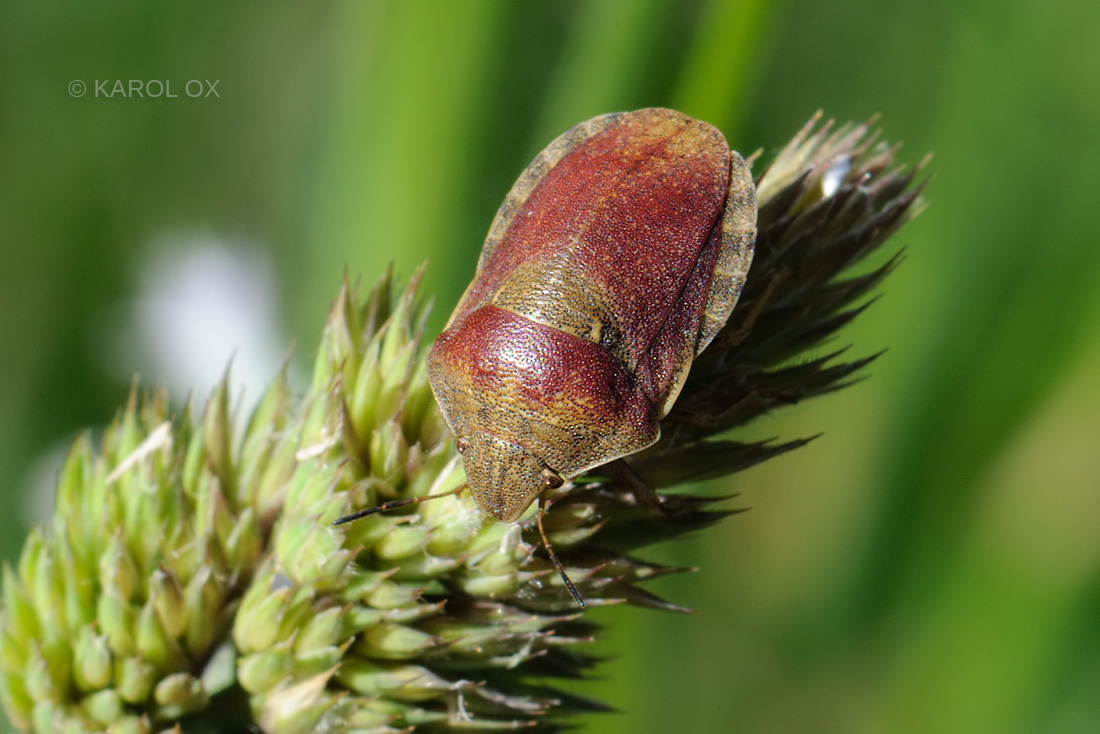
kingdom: Animalia
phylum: Arthropoda
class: Insecta
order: Hemiptera
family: Scutelleridae
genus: Eurygaster
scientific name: Eurygaster testudinaria
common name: Tortoise bug
